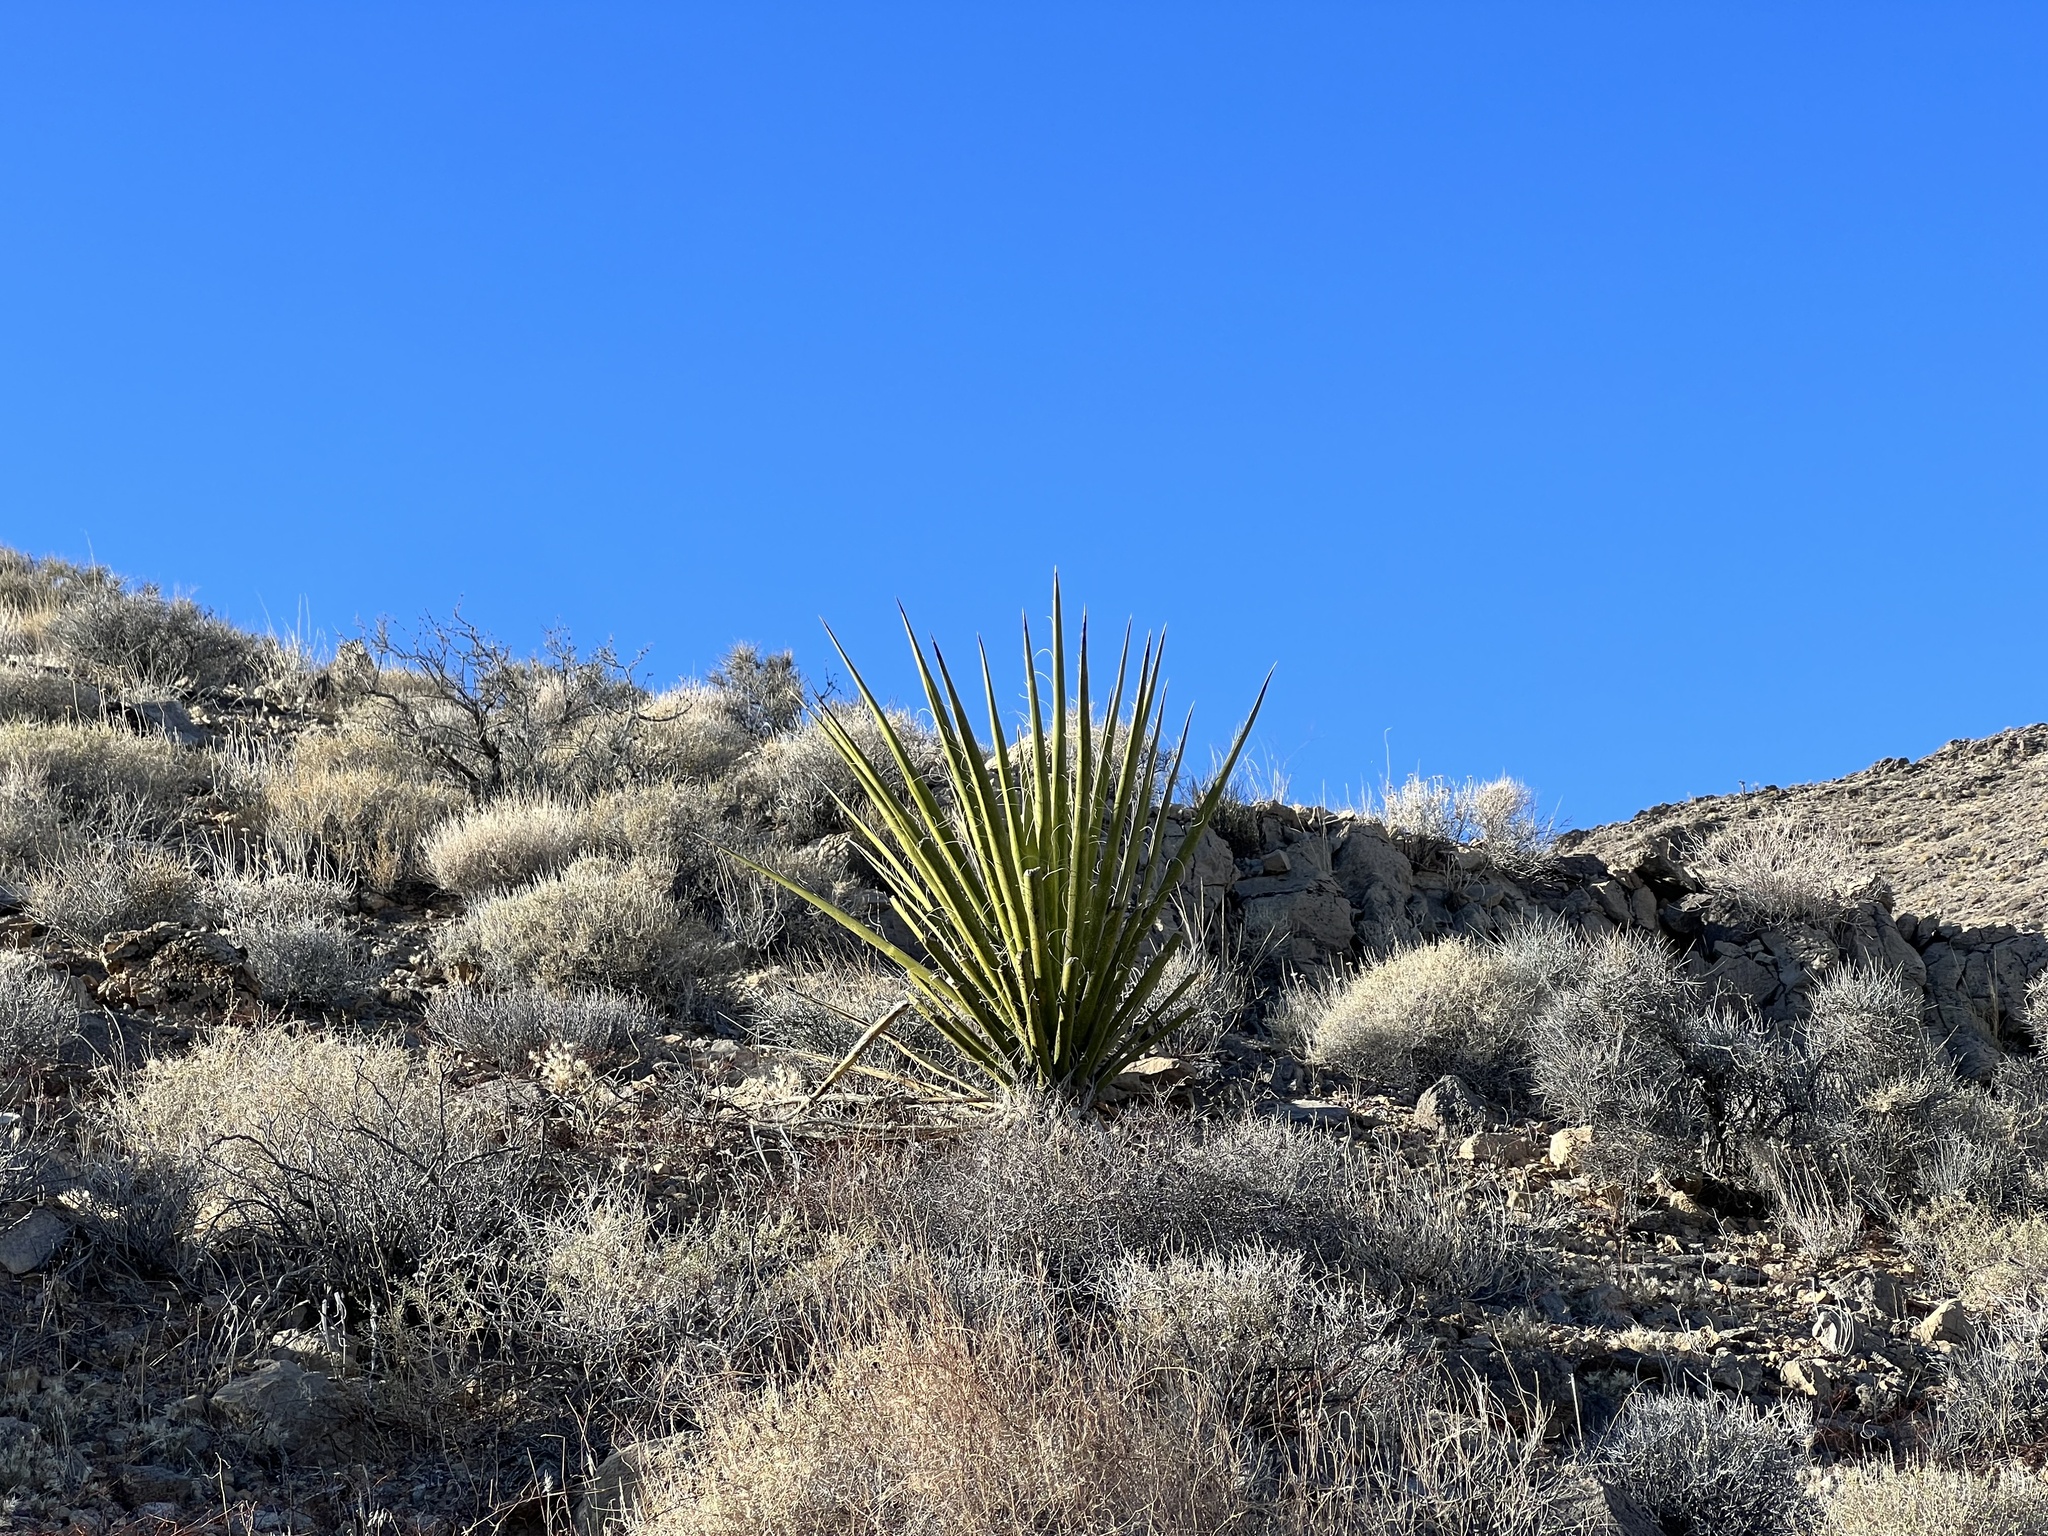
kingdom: Plantae
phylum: Tracheophyta
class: Liliopsida
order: Asparagales
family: Asparagaceae
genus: Yucca
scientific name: Yucca schidigera
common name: Mojave yucca
